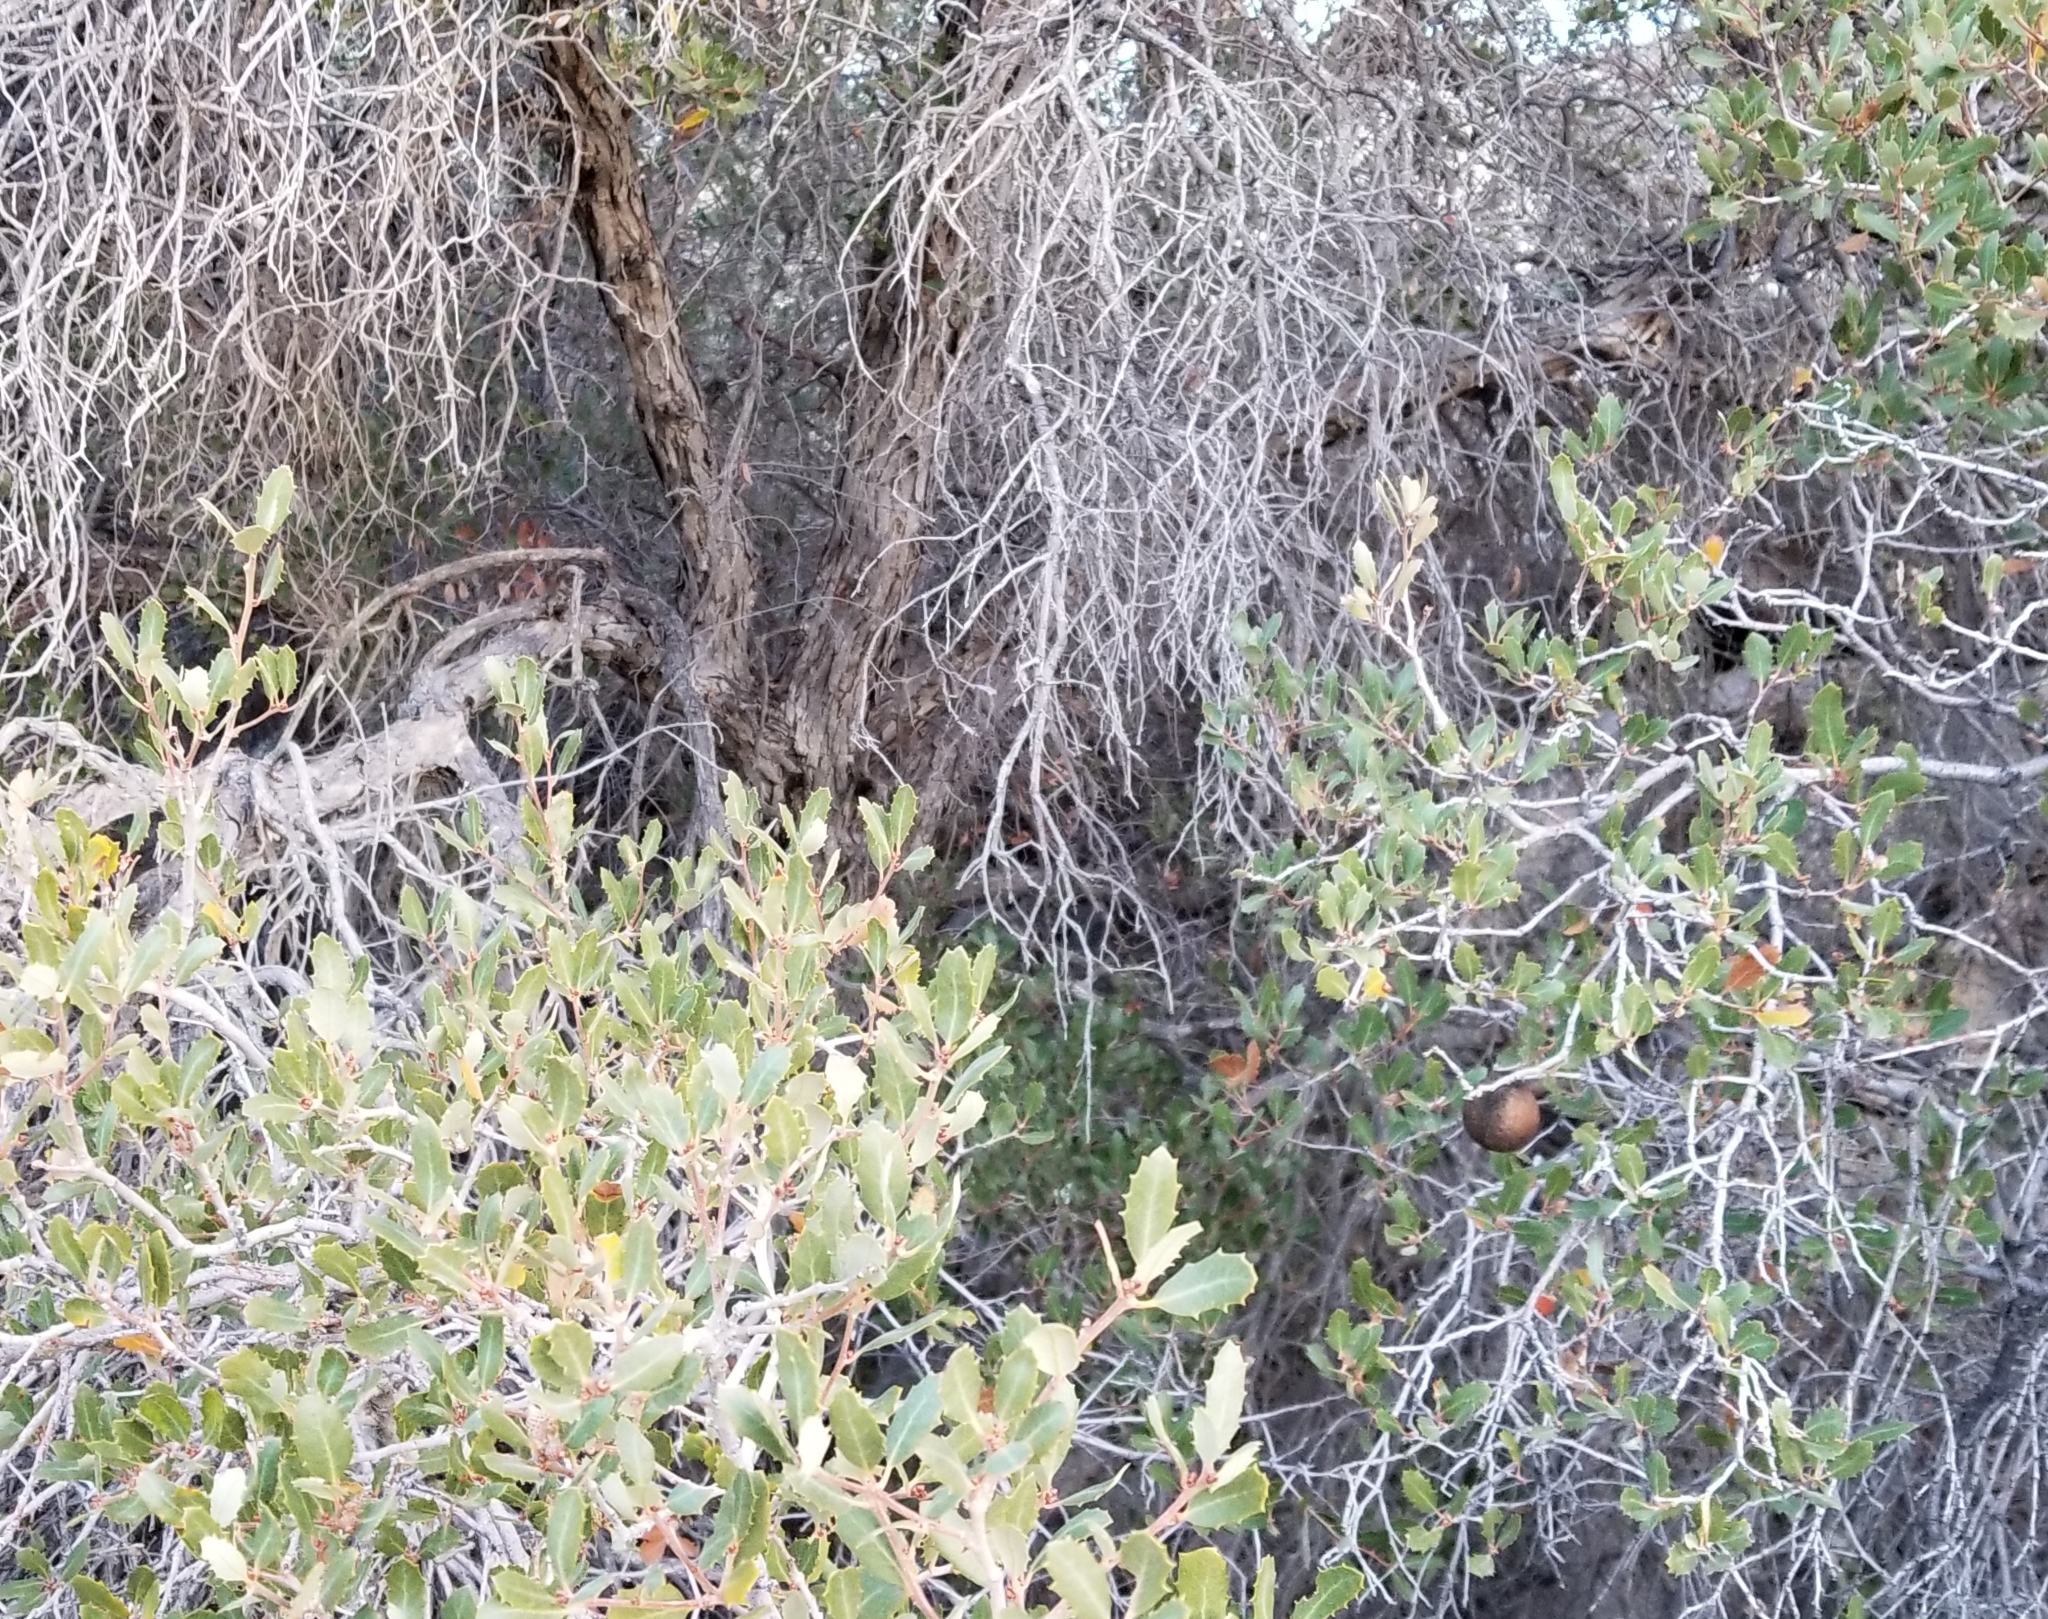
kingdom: Plantae
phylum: Tracheophyta
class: Magnoliopsida
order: Fagales
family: Fagaceae
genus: Quercus
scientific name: Quercus cornelius-mulleri
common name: Muller oak
